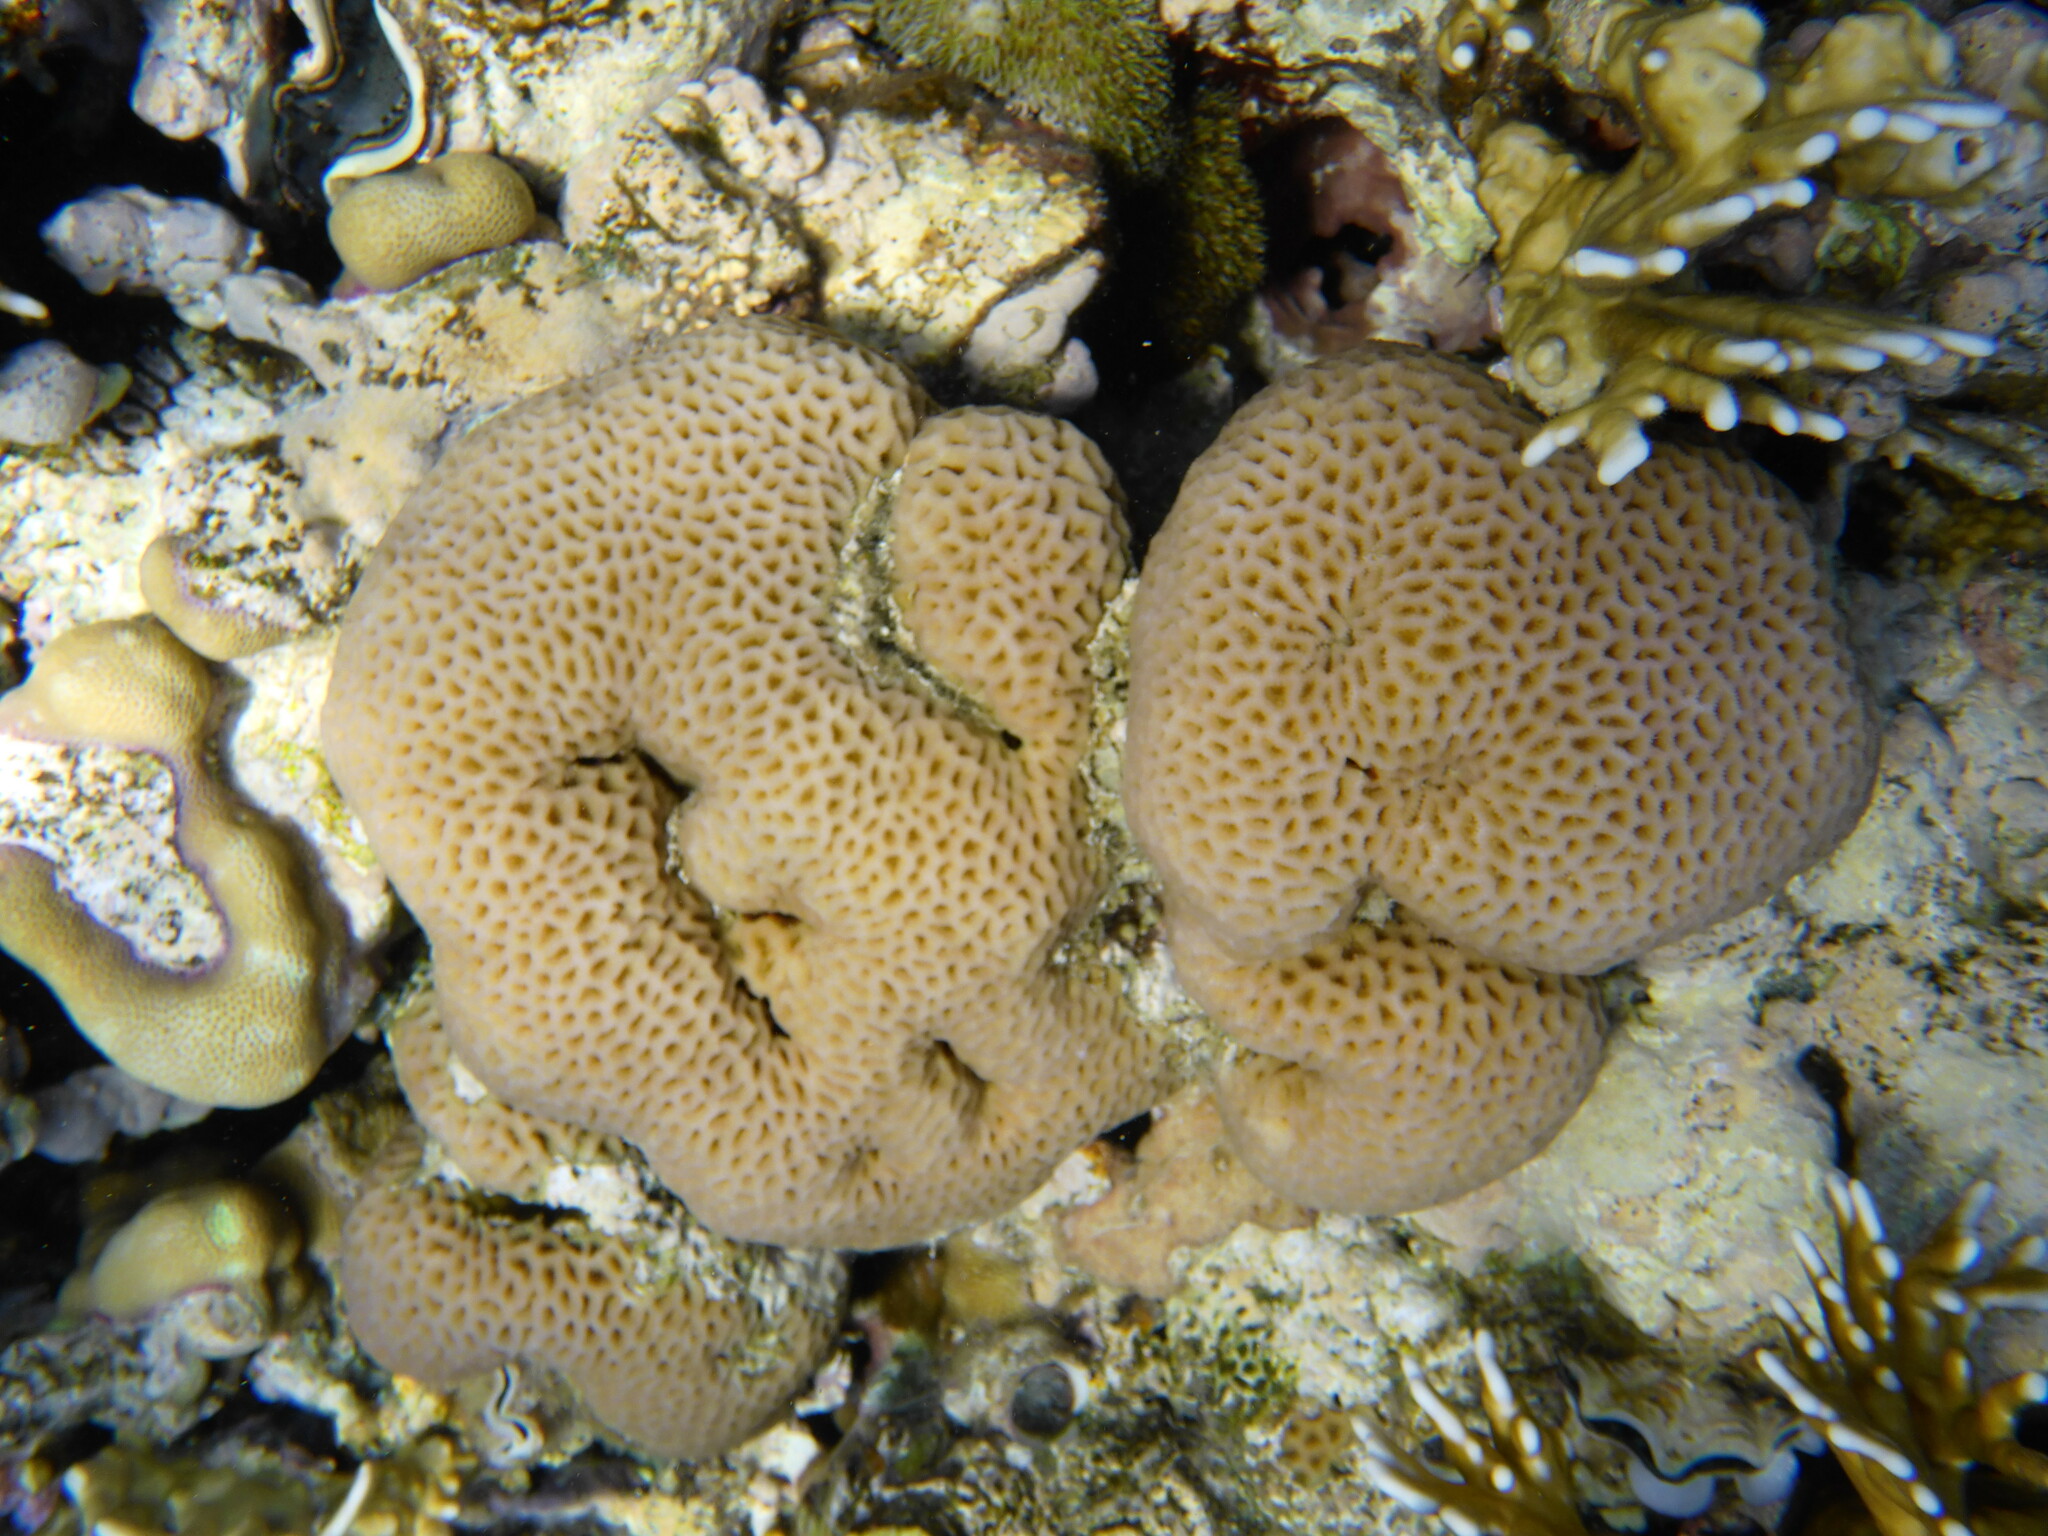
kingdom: Animalia
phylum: Cnidaria
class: Anthozoa
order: Scleractinia
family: Merulinidae
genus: Goniastrea
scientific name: Goniastrea pectinata
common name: Lesser star coral
